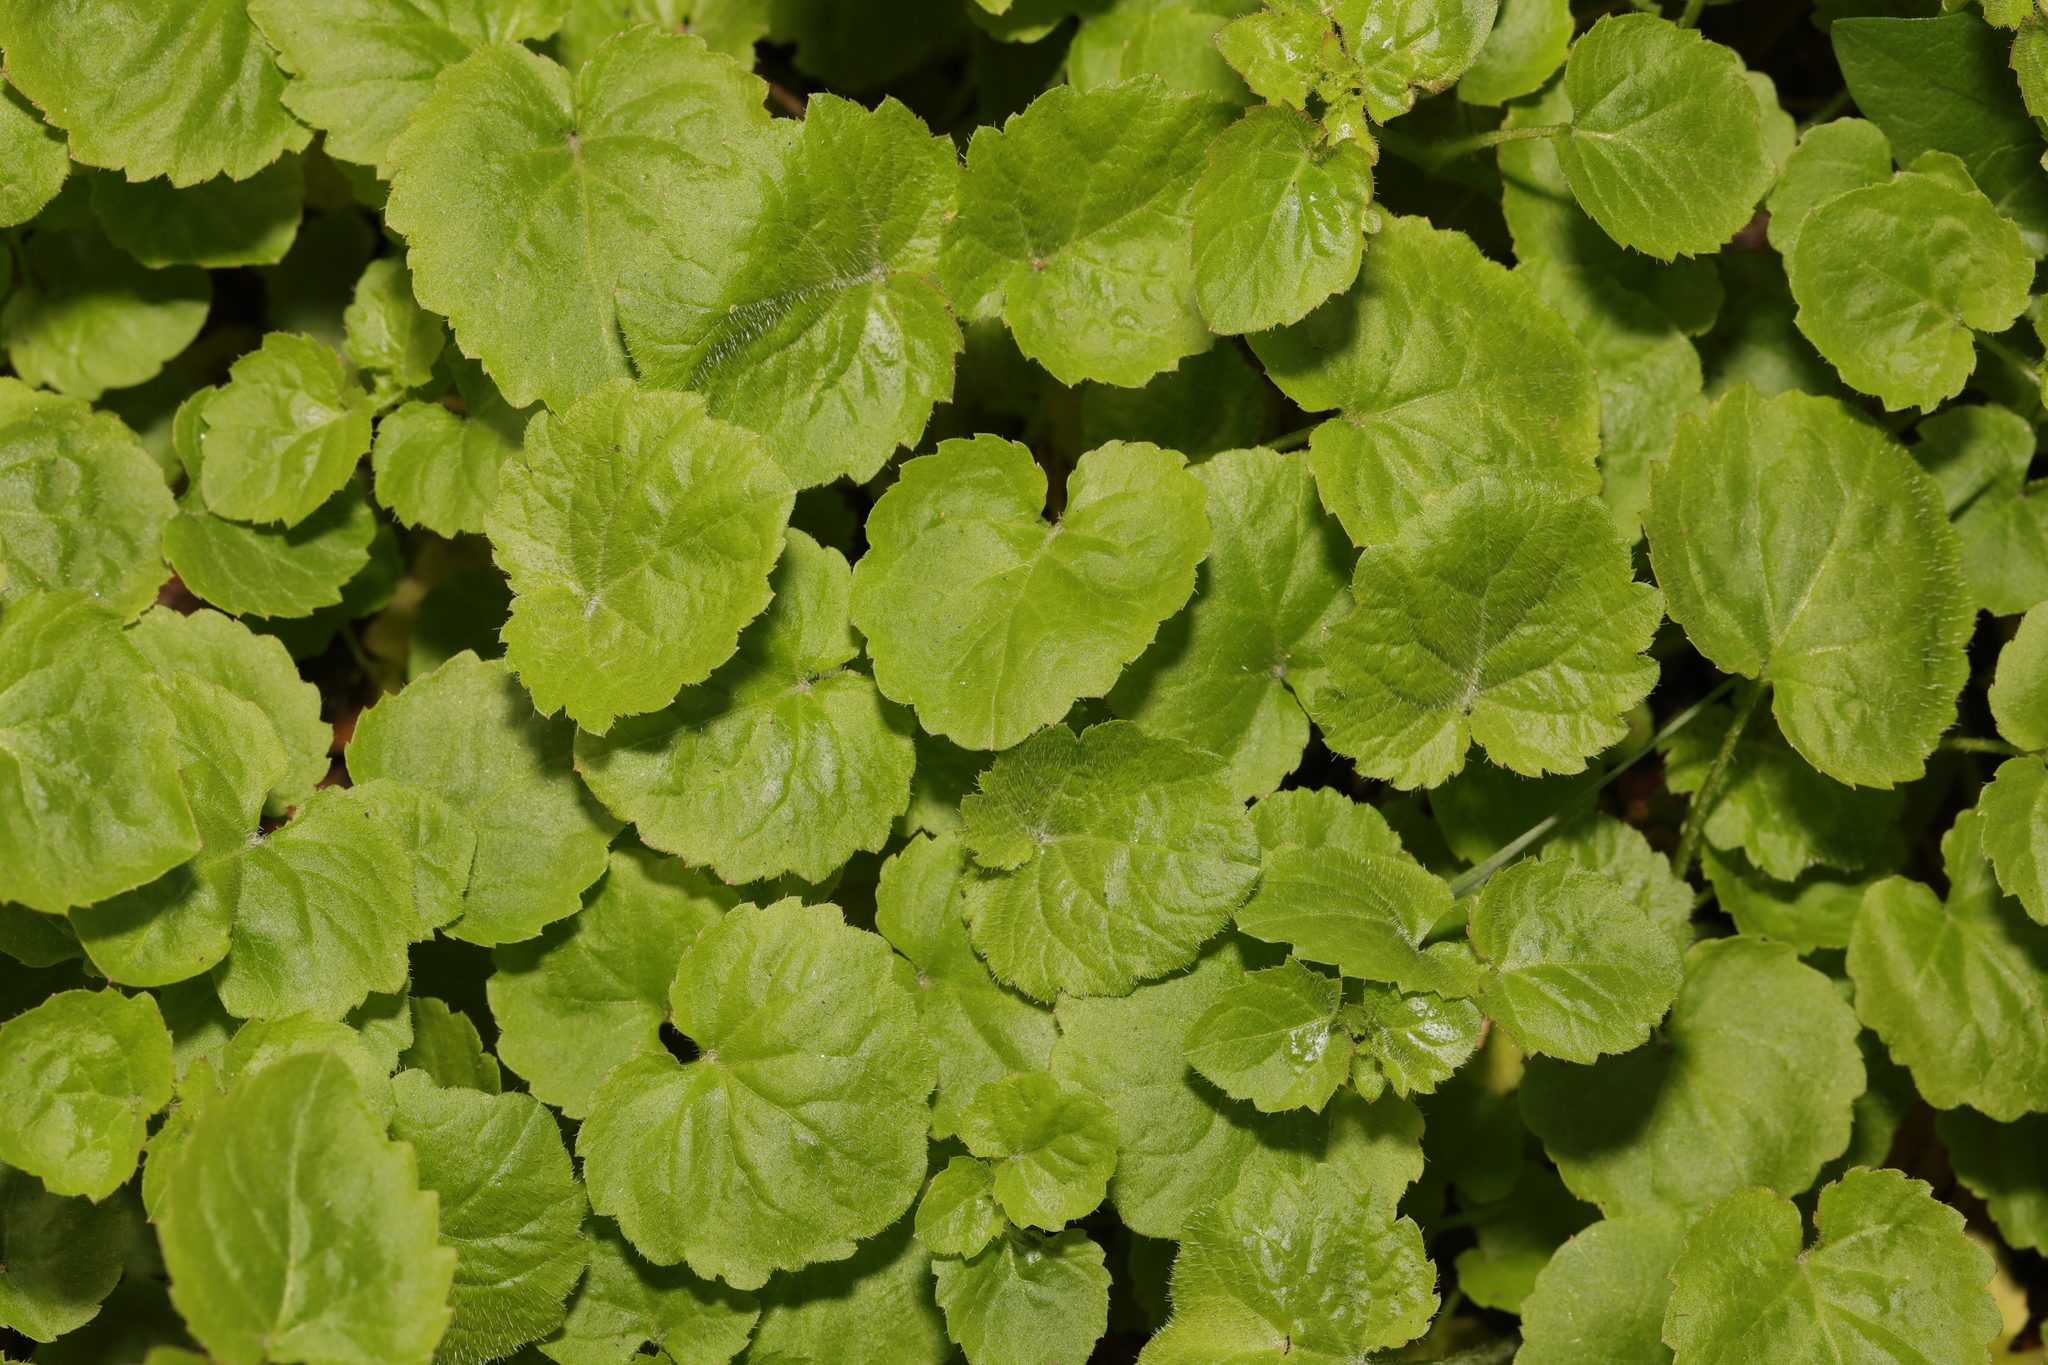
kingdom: Plantae
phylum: Tracheophyta
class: Magnoliopsida
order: Lamiales
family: Lamiaceae
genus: Glechoma
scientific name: Glechoma hederacea
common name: Ground ivy
